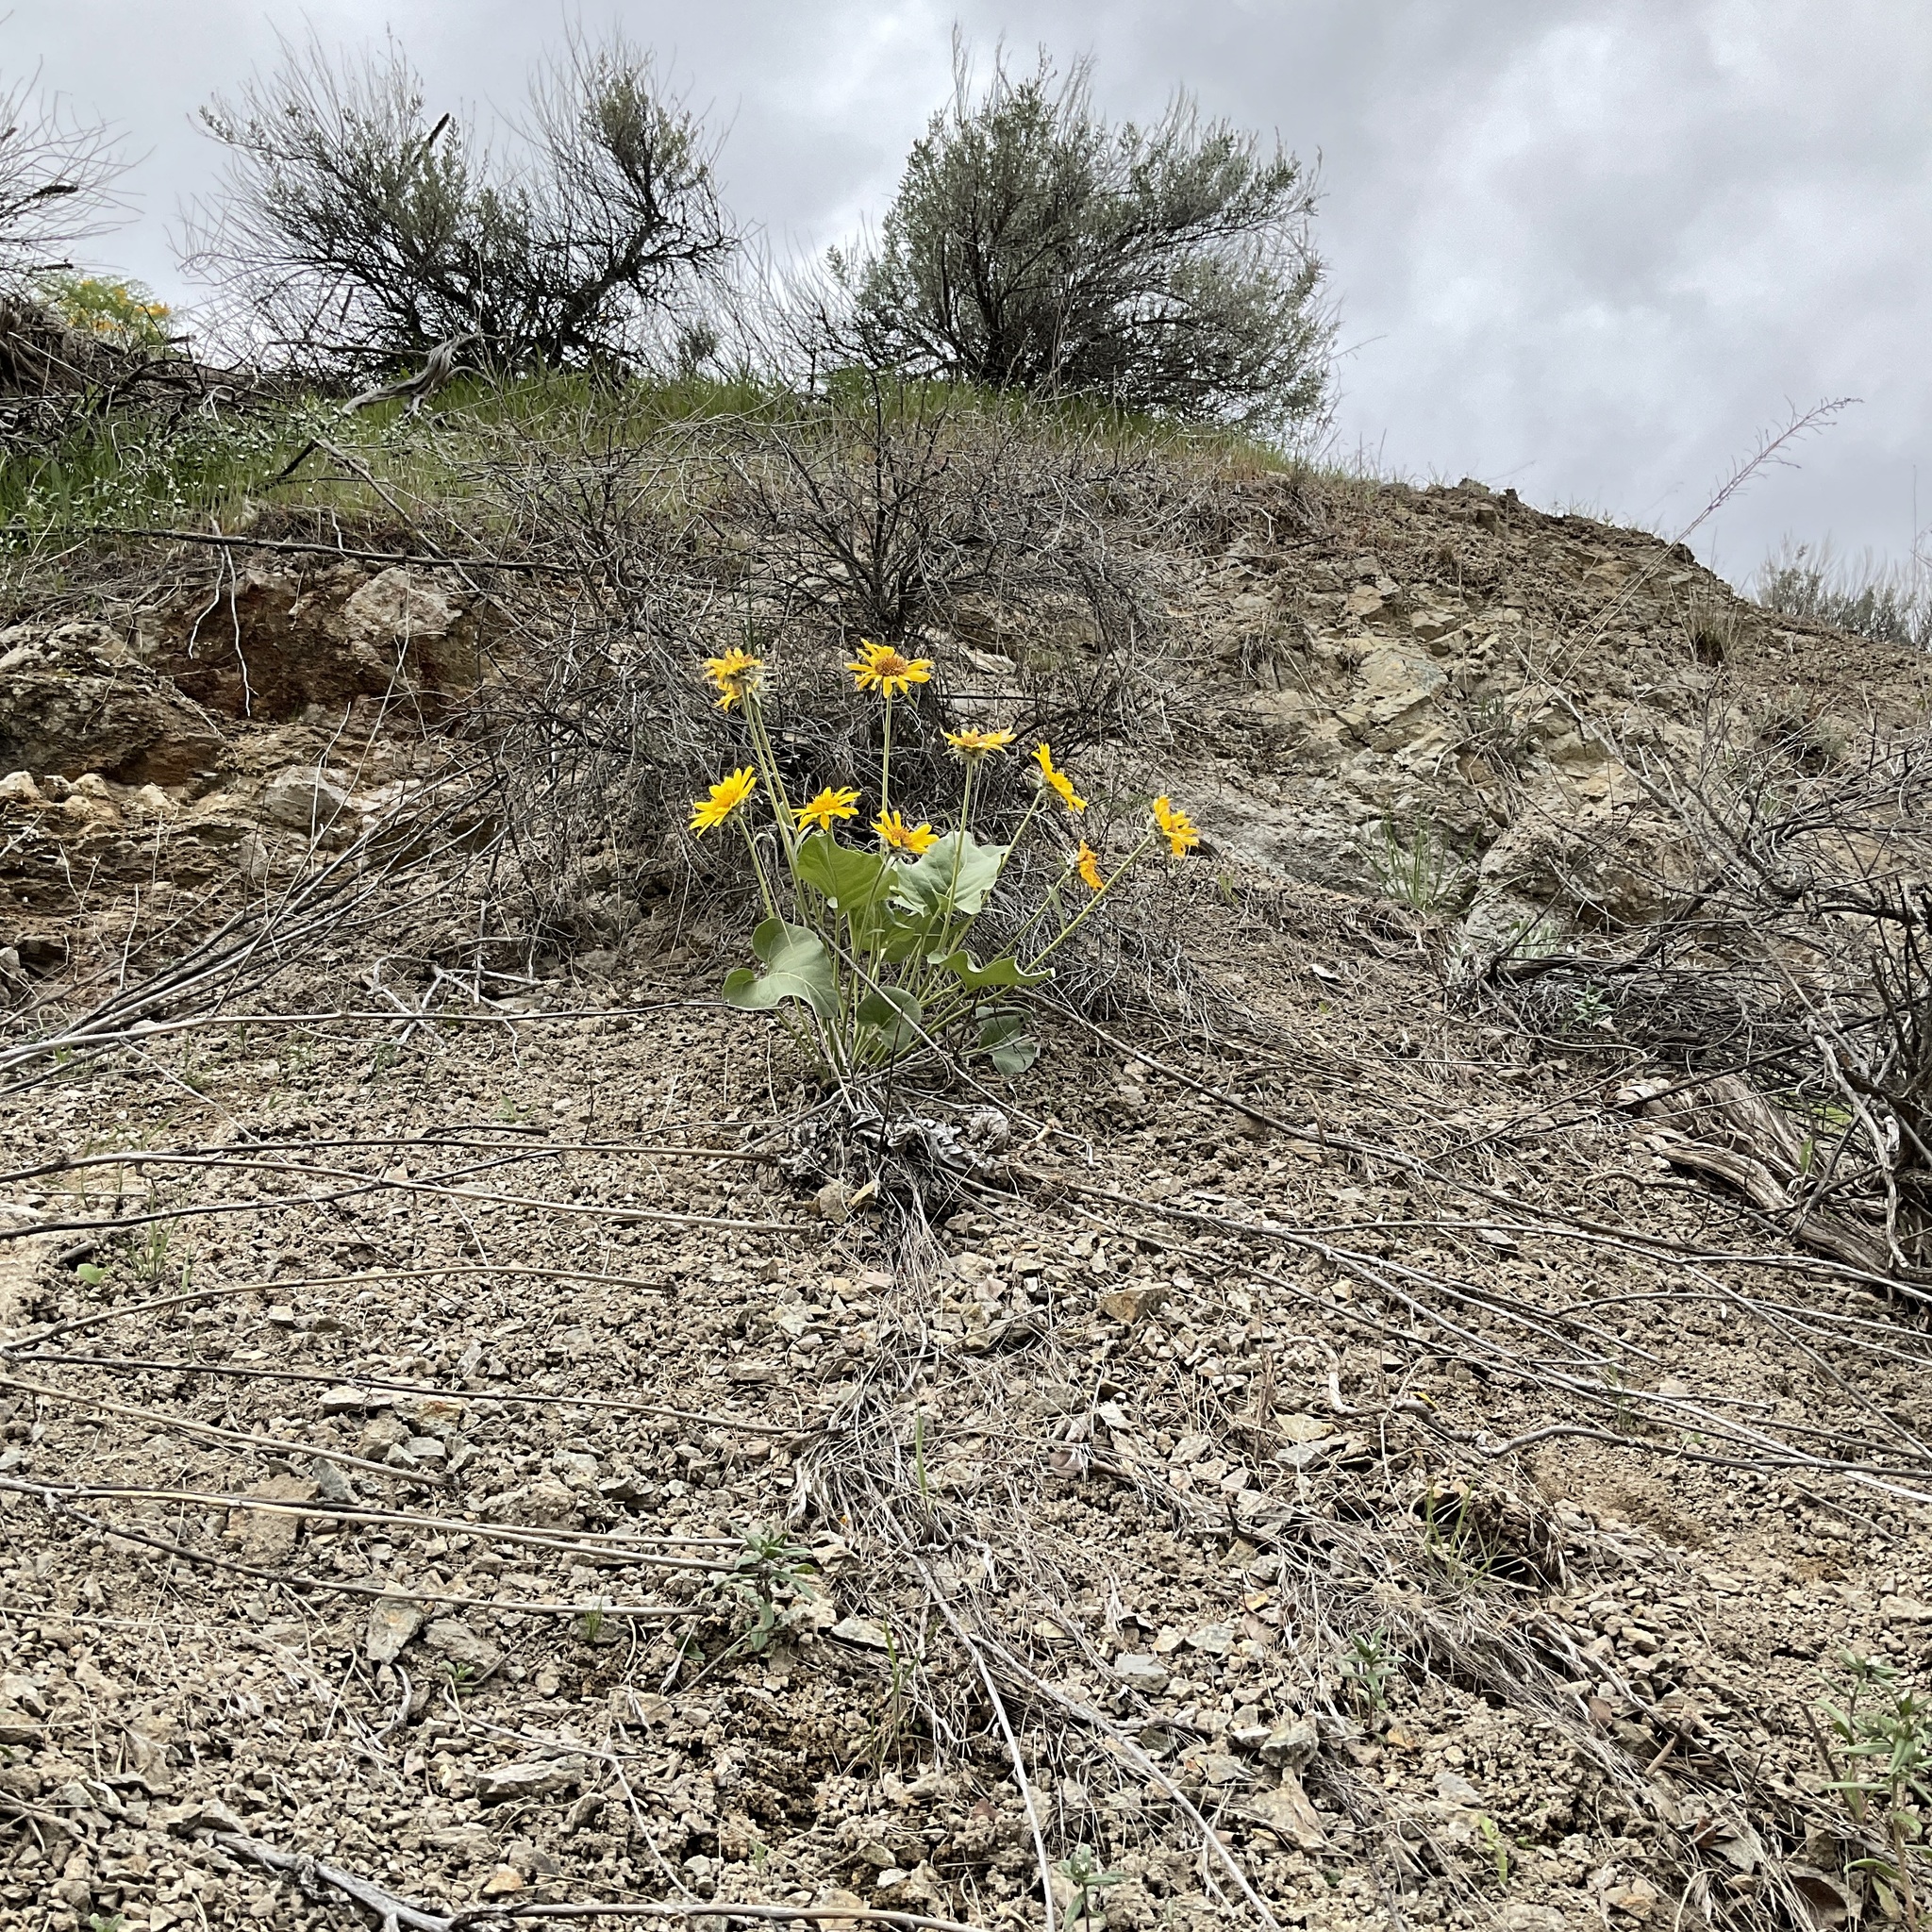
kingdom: Plantae
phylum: Tracheophyta
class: Magnoliopsida
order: Asterales
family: Asteraceae
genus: Wyethia
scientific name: Wyethia sagittata
